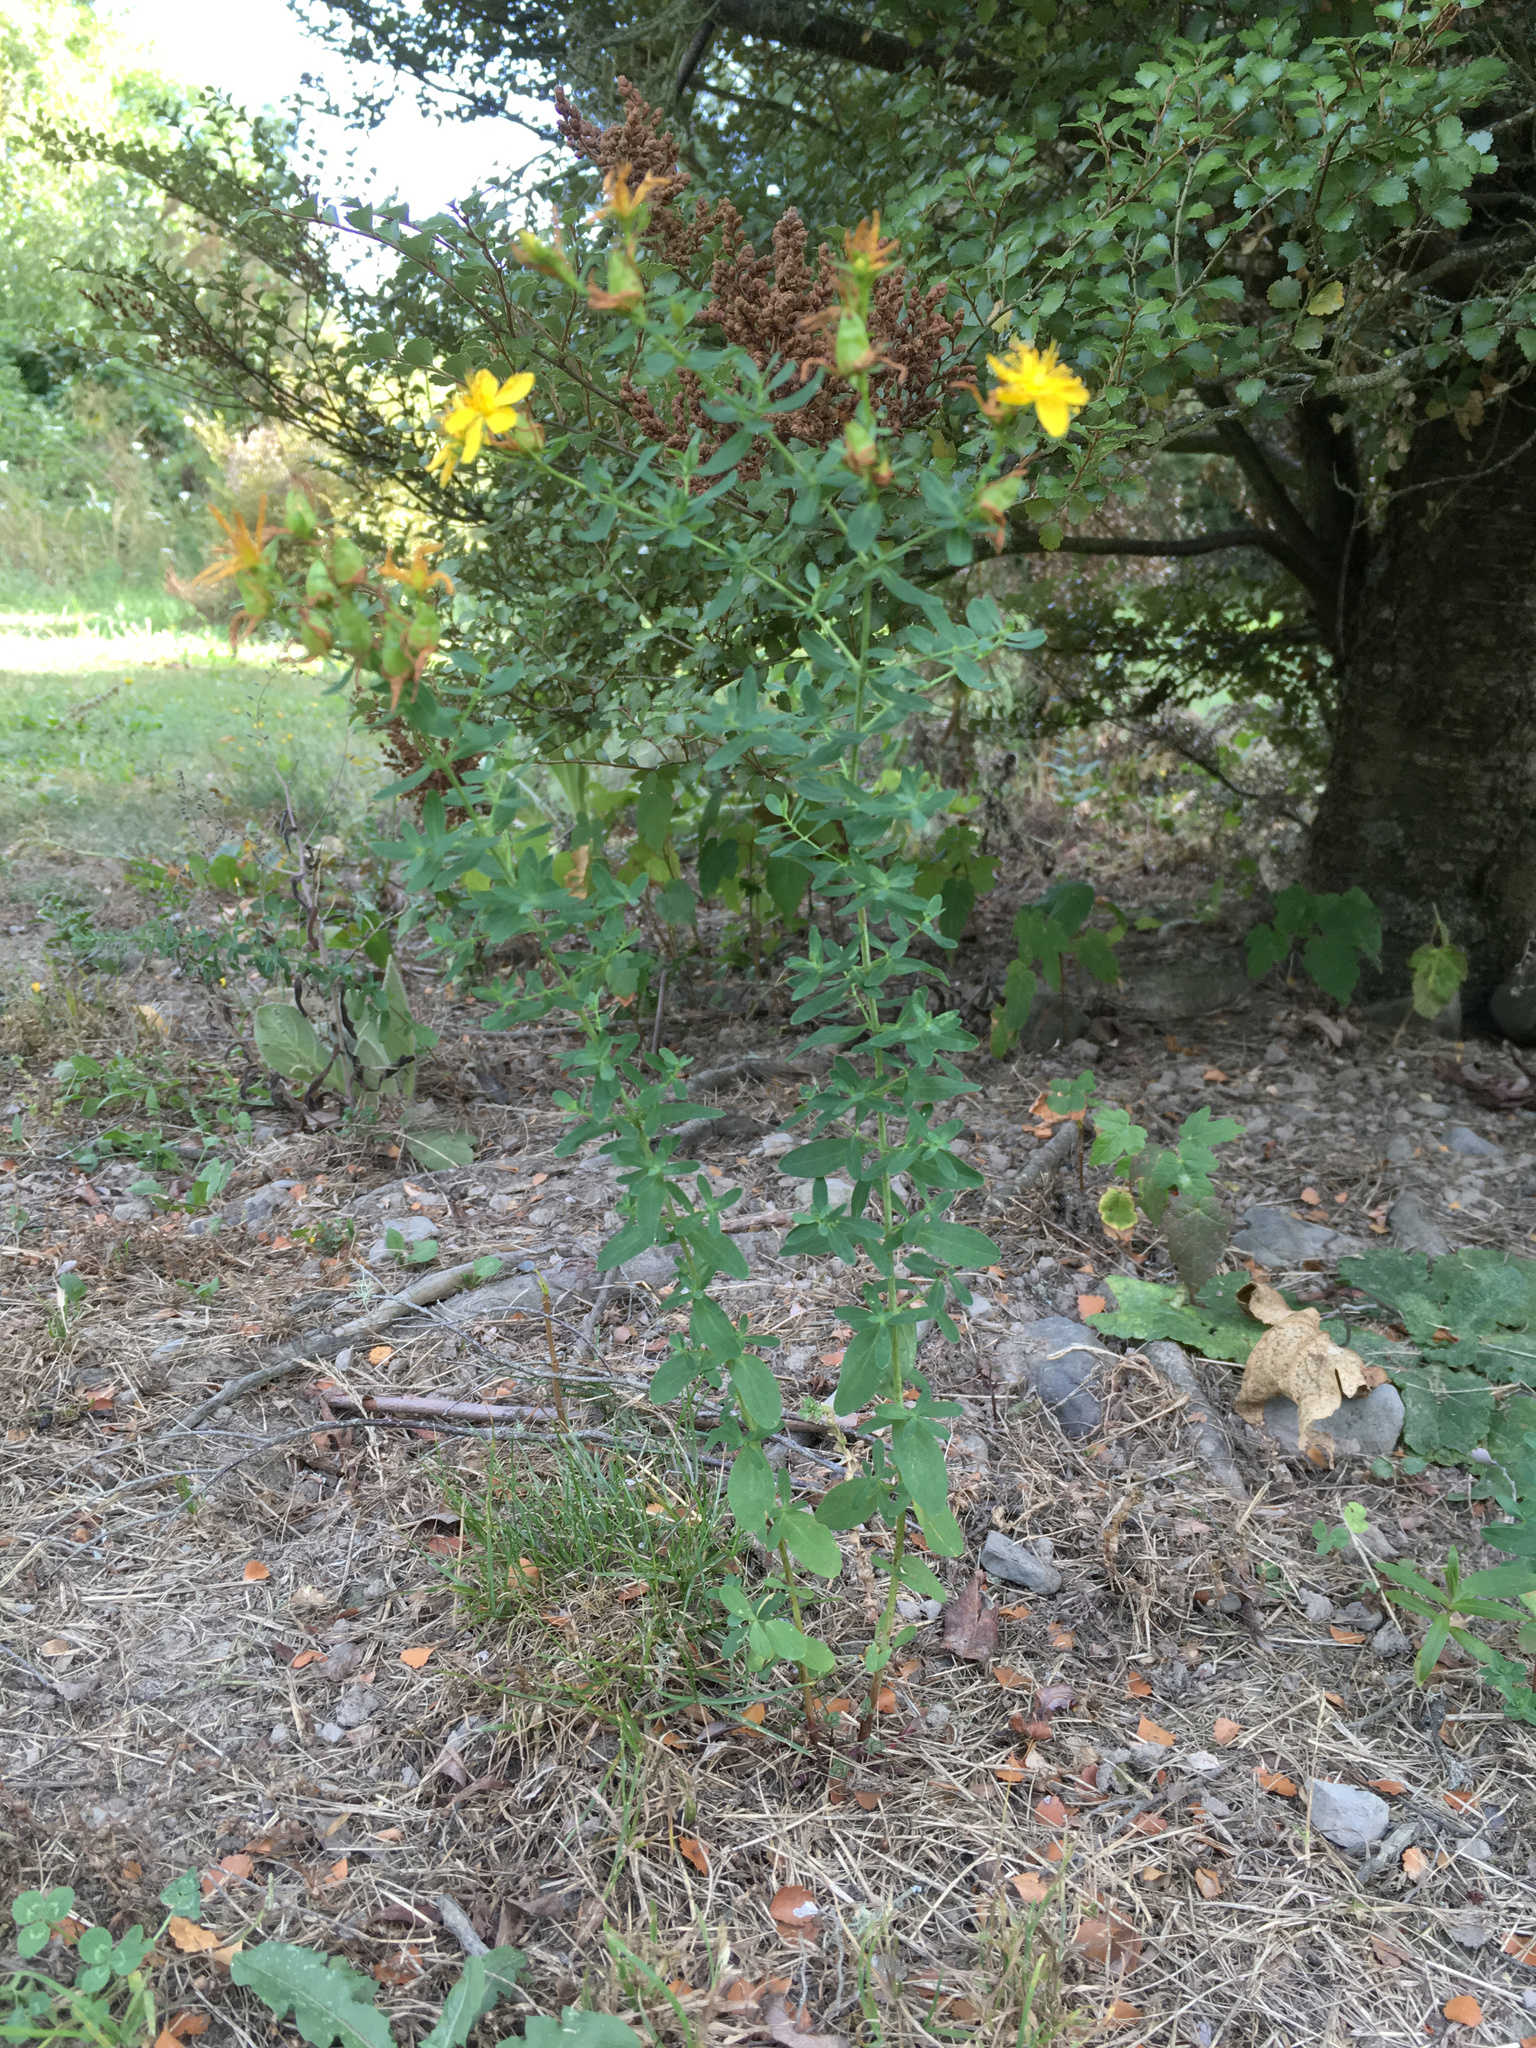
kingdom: Plantae
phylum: Tracheophyta
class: Magnoliopsida
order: Malpighiales
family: Hypericaceae
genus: Hypericum
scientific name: Hypericum perforatum
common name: Common st. johnswort
